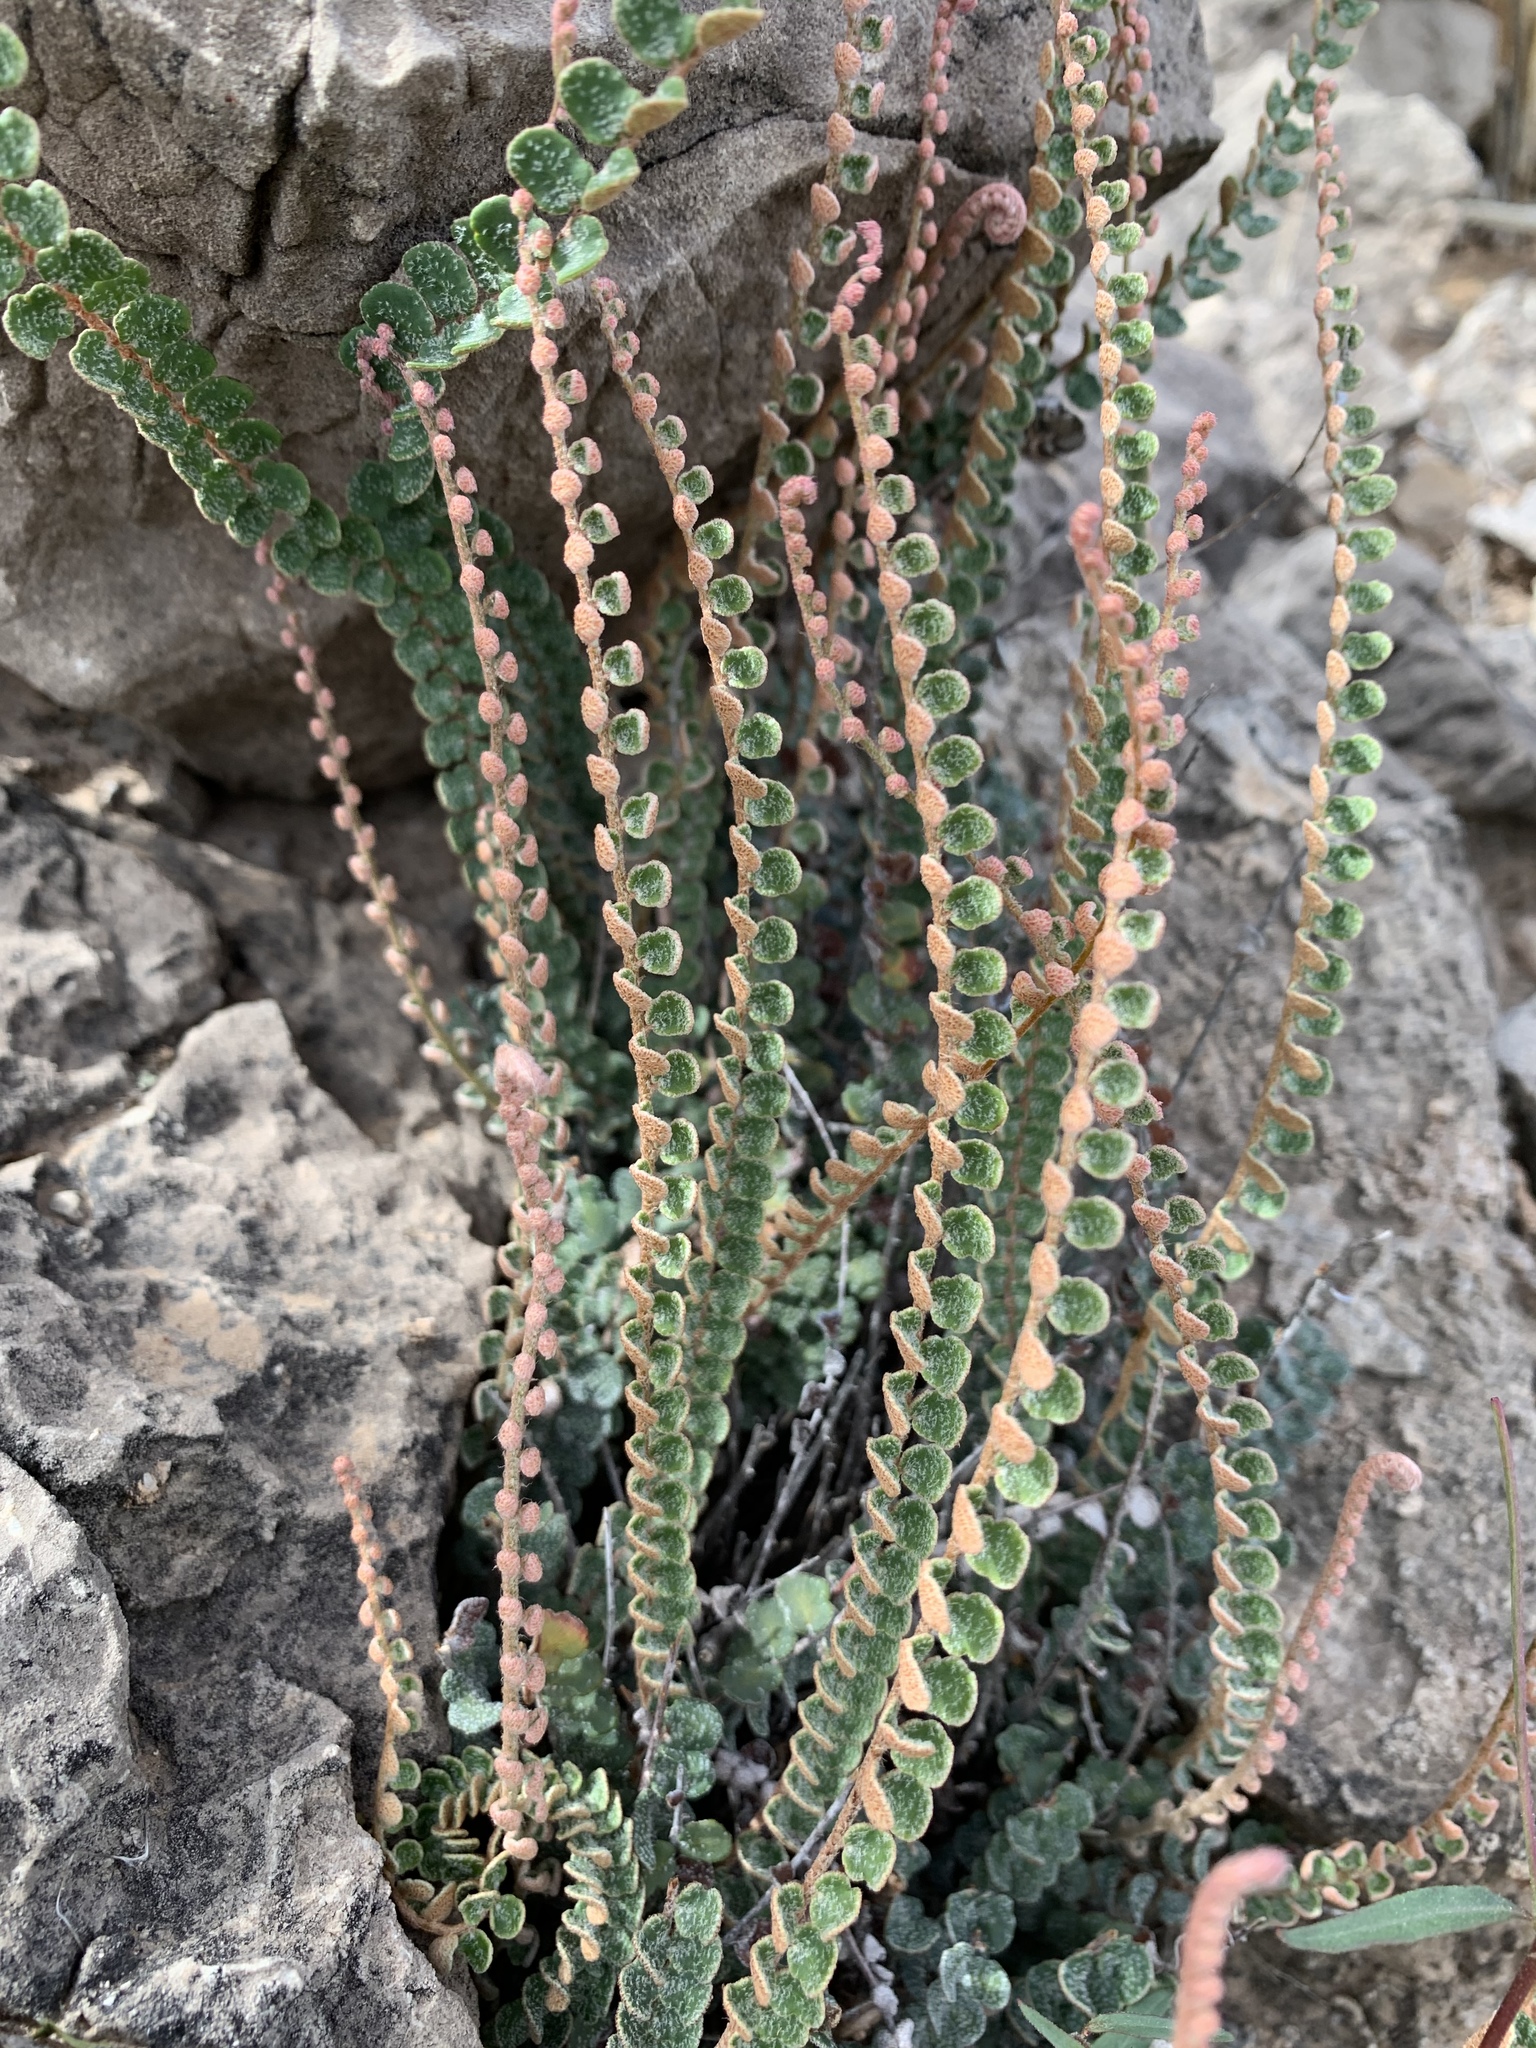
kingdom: Plantae
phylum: Tracheophyta
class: Polypodiopsida
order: Polypodiales
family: Pteridaceae
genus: Astrolepis
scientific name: Astrolepis cochisensis
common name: Scaly cloak fern
